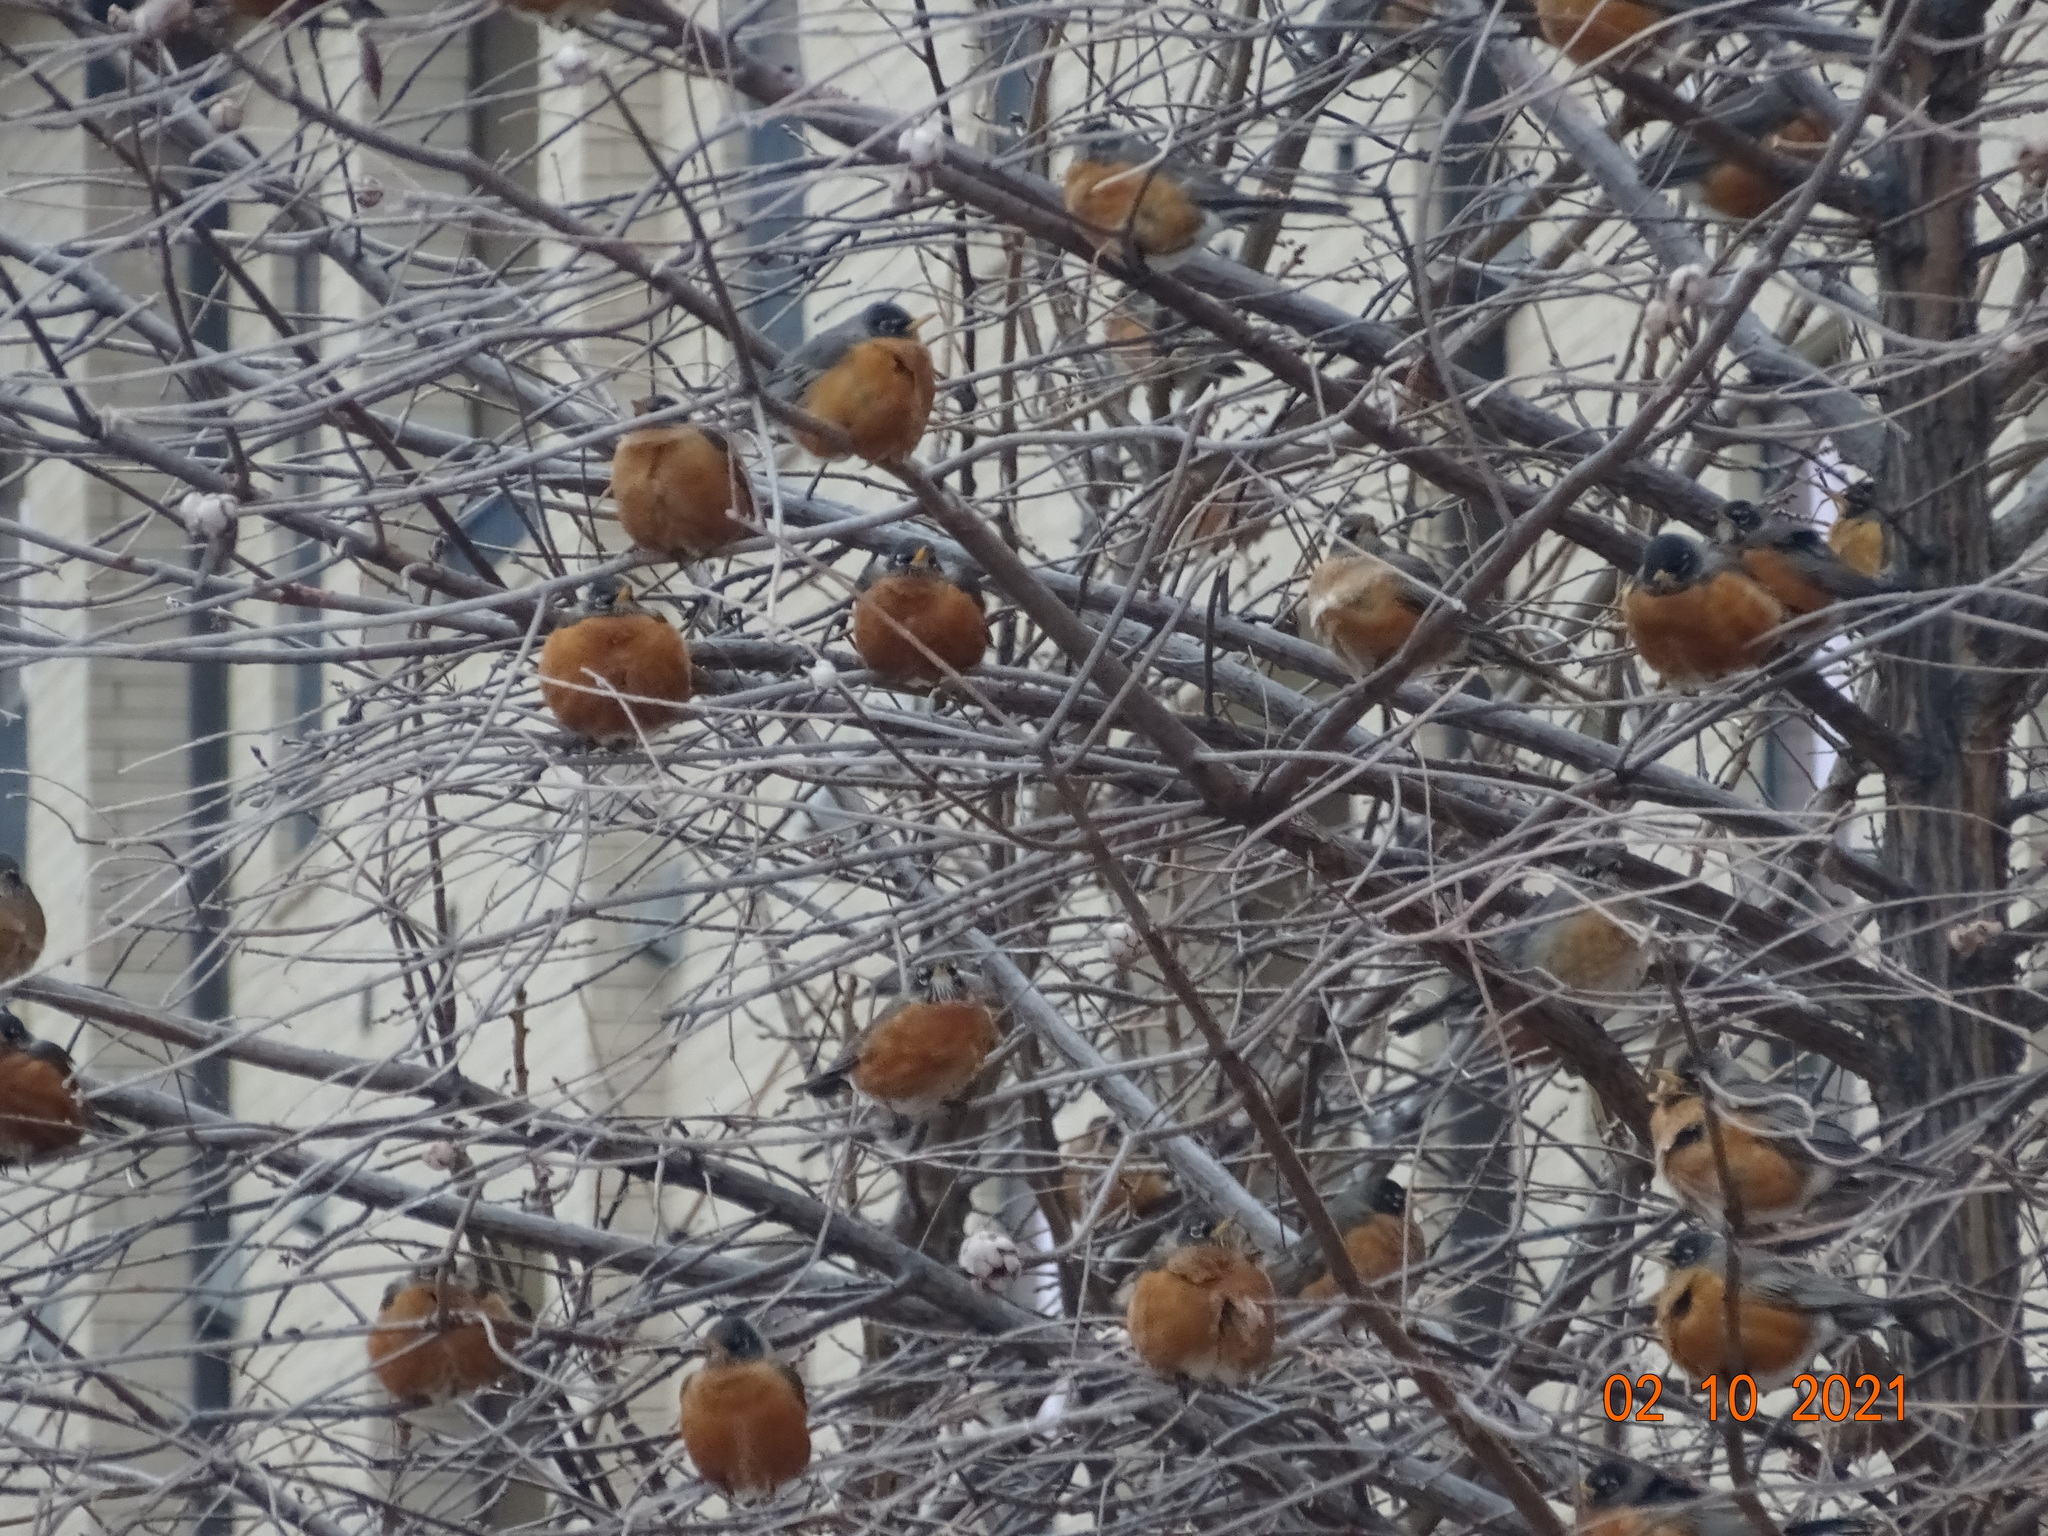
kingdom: Animalia
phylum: Chordata
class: Aves
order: Passeriformes
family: Turdidae
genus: Turdus
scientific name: Turdus migratorius
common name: American robin
